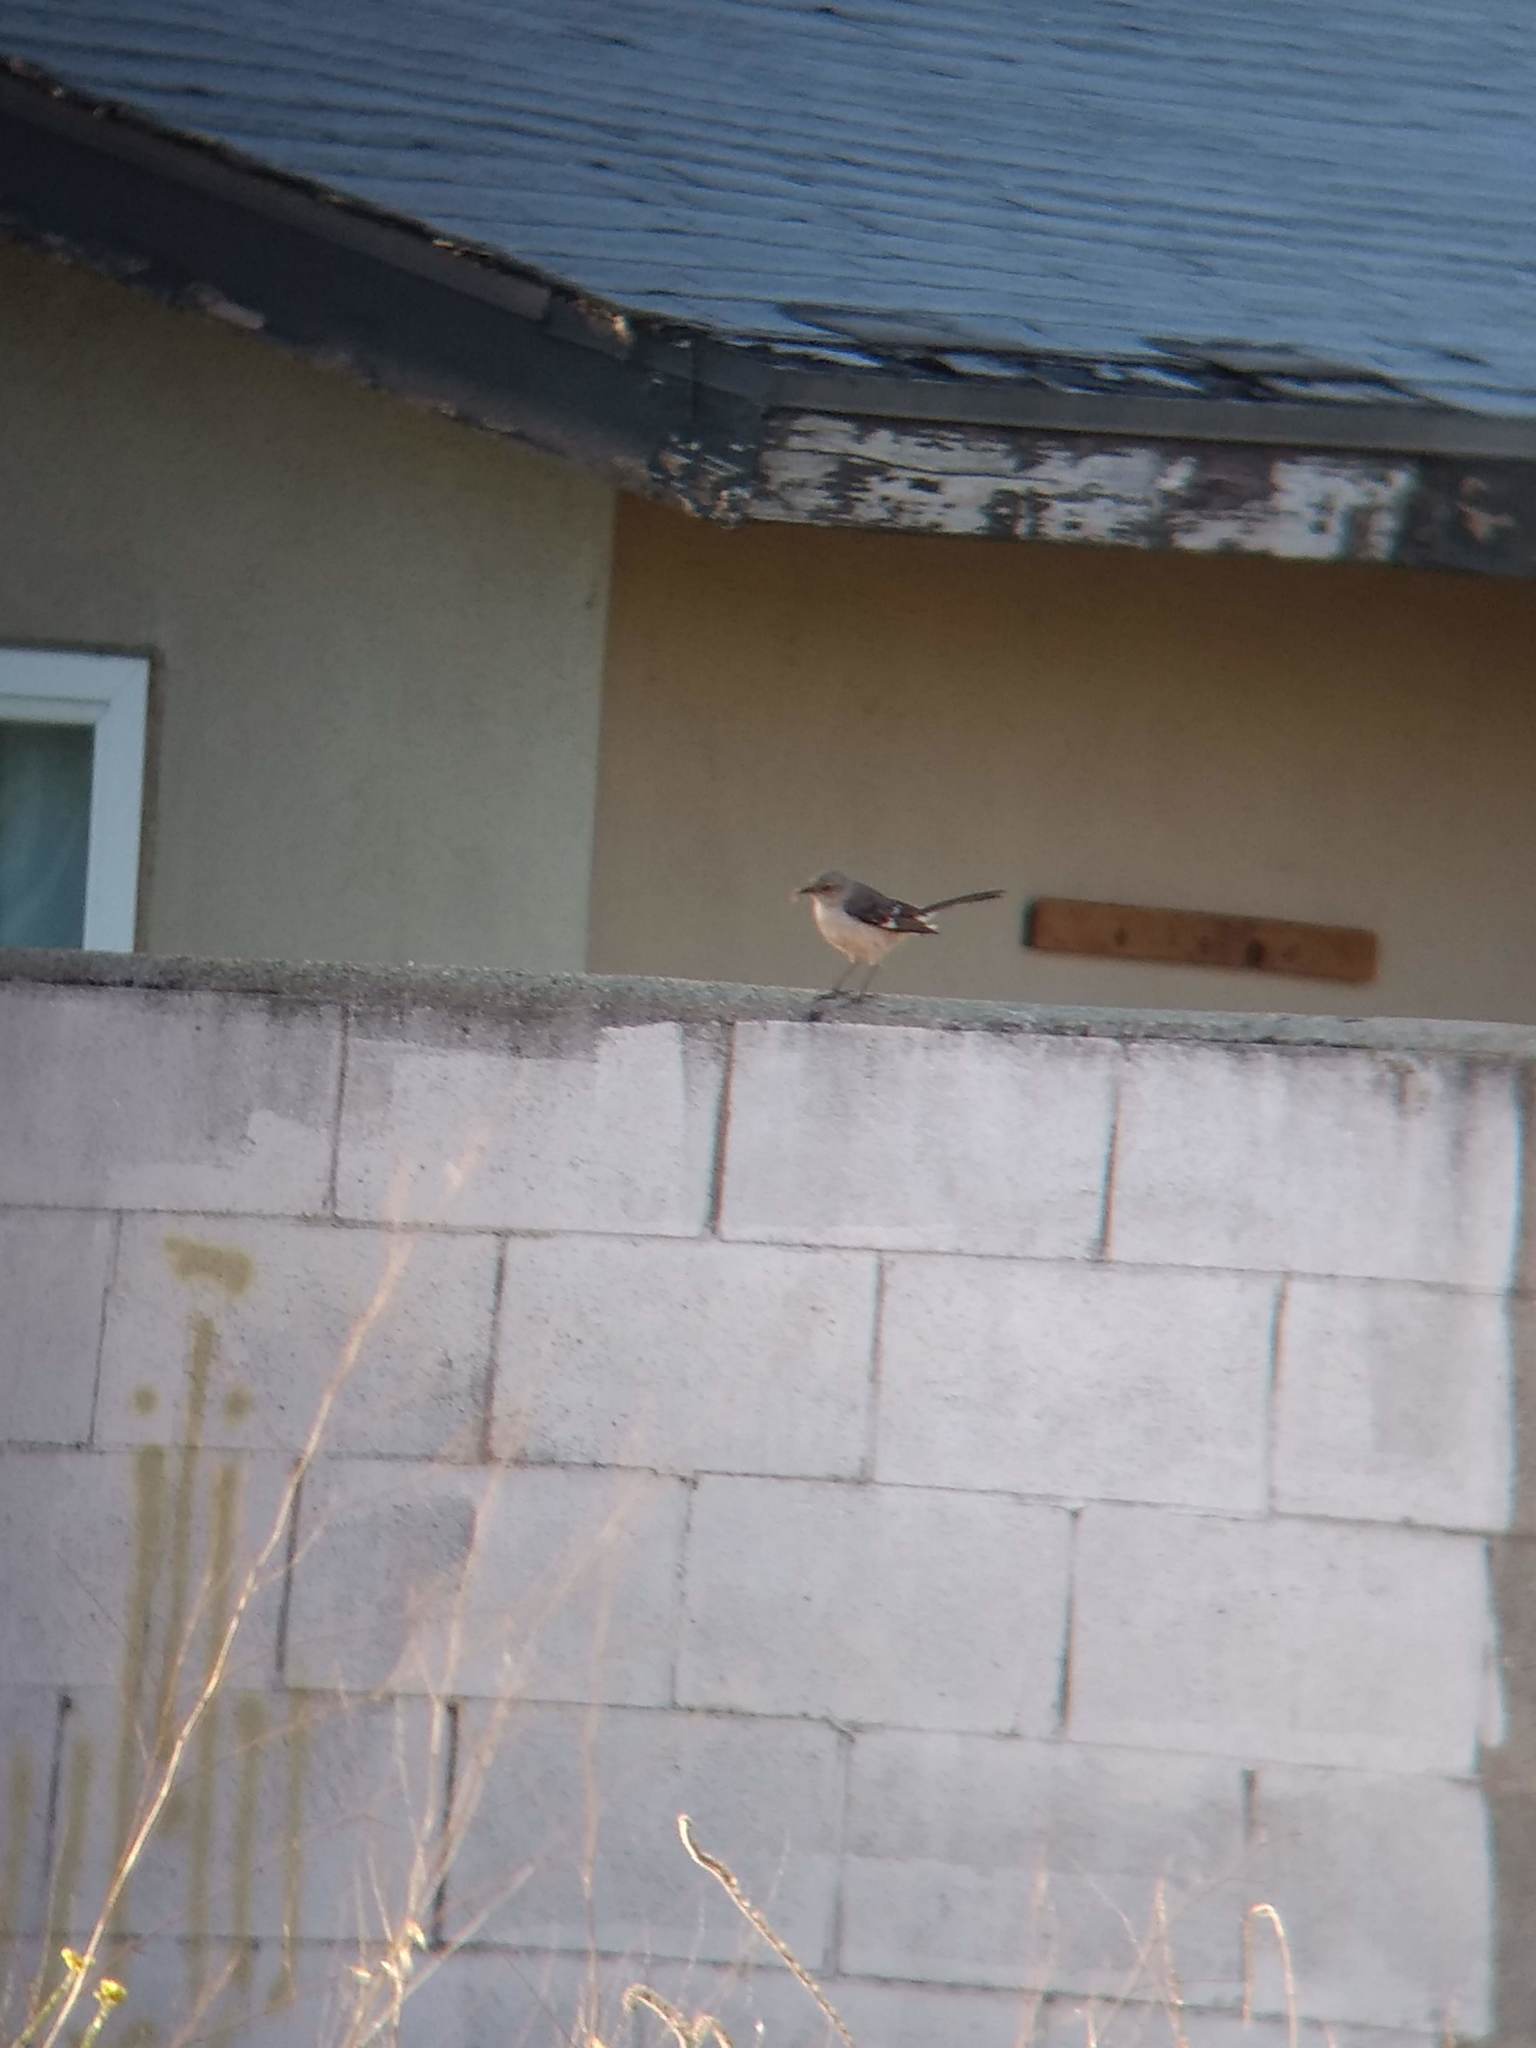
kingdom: Animalia
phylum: Chordata
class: Aves
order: Passeriformes
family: Mimidae
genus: Mimus
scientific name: Mimus polyglottos
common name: Northern mockingbird
